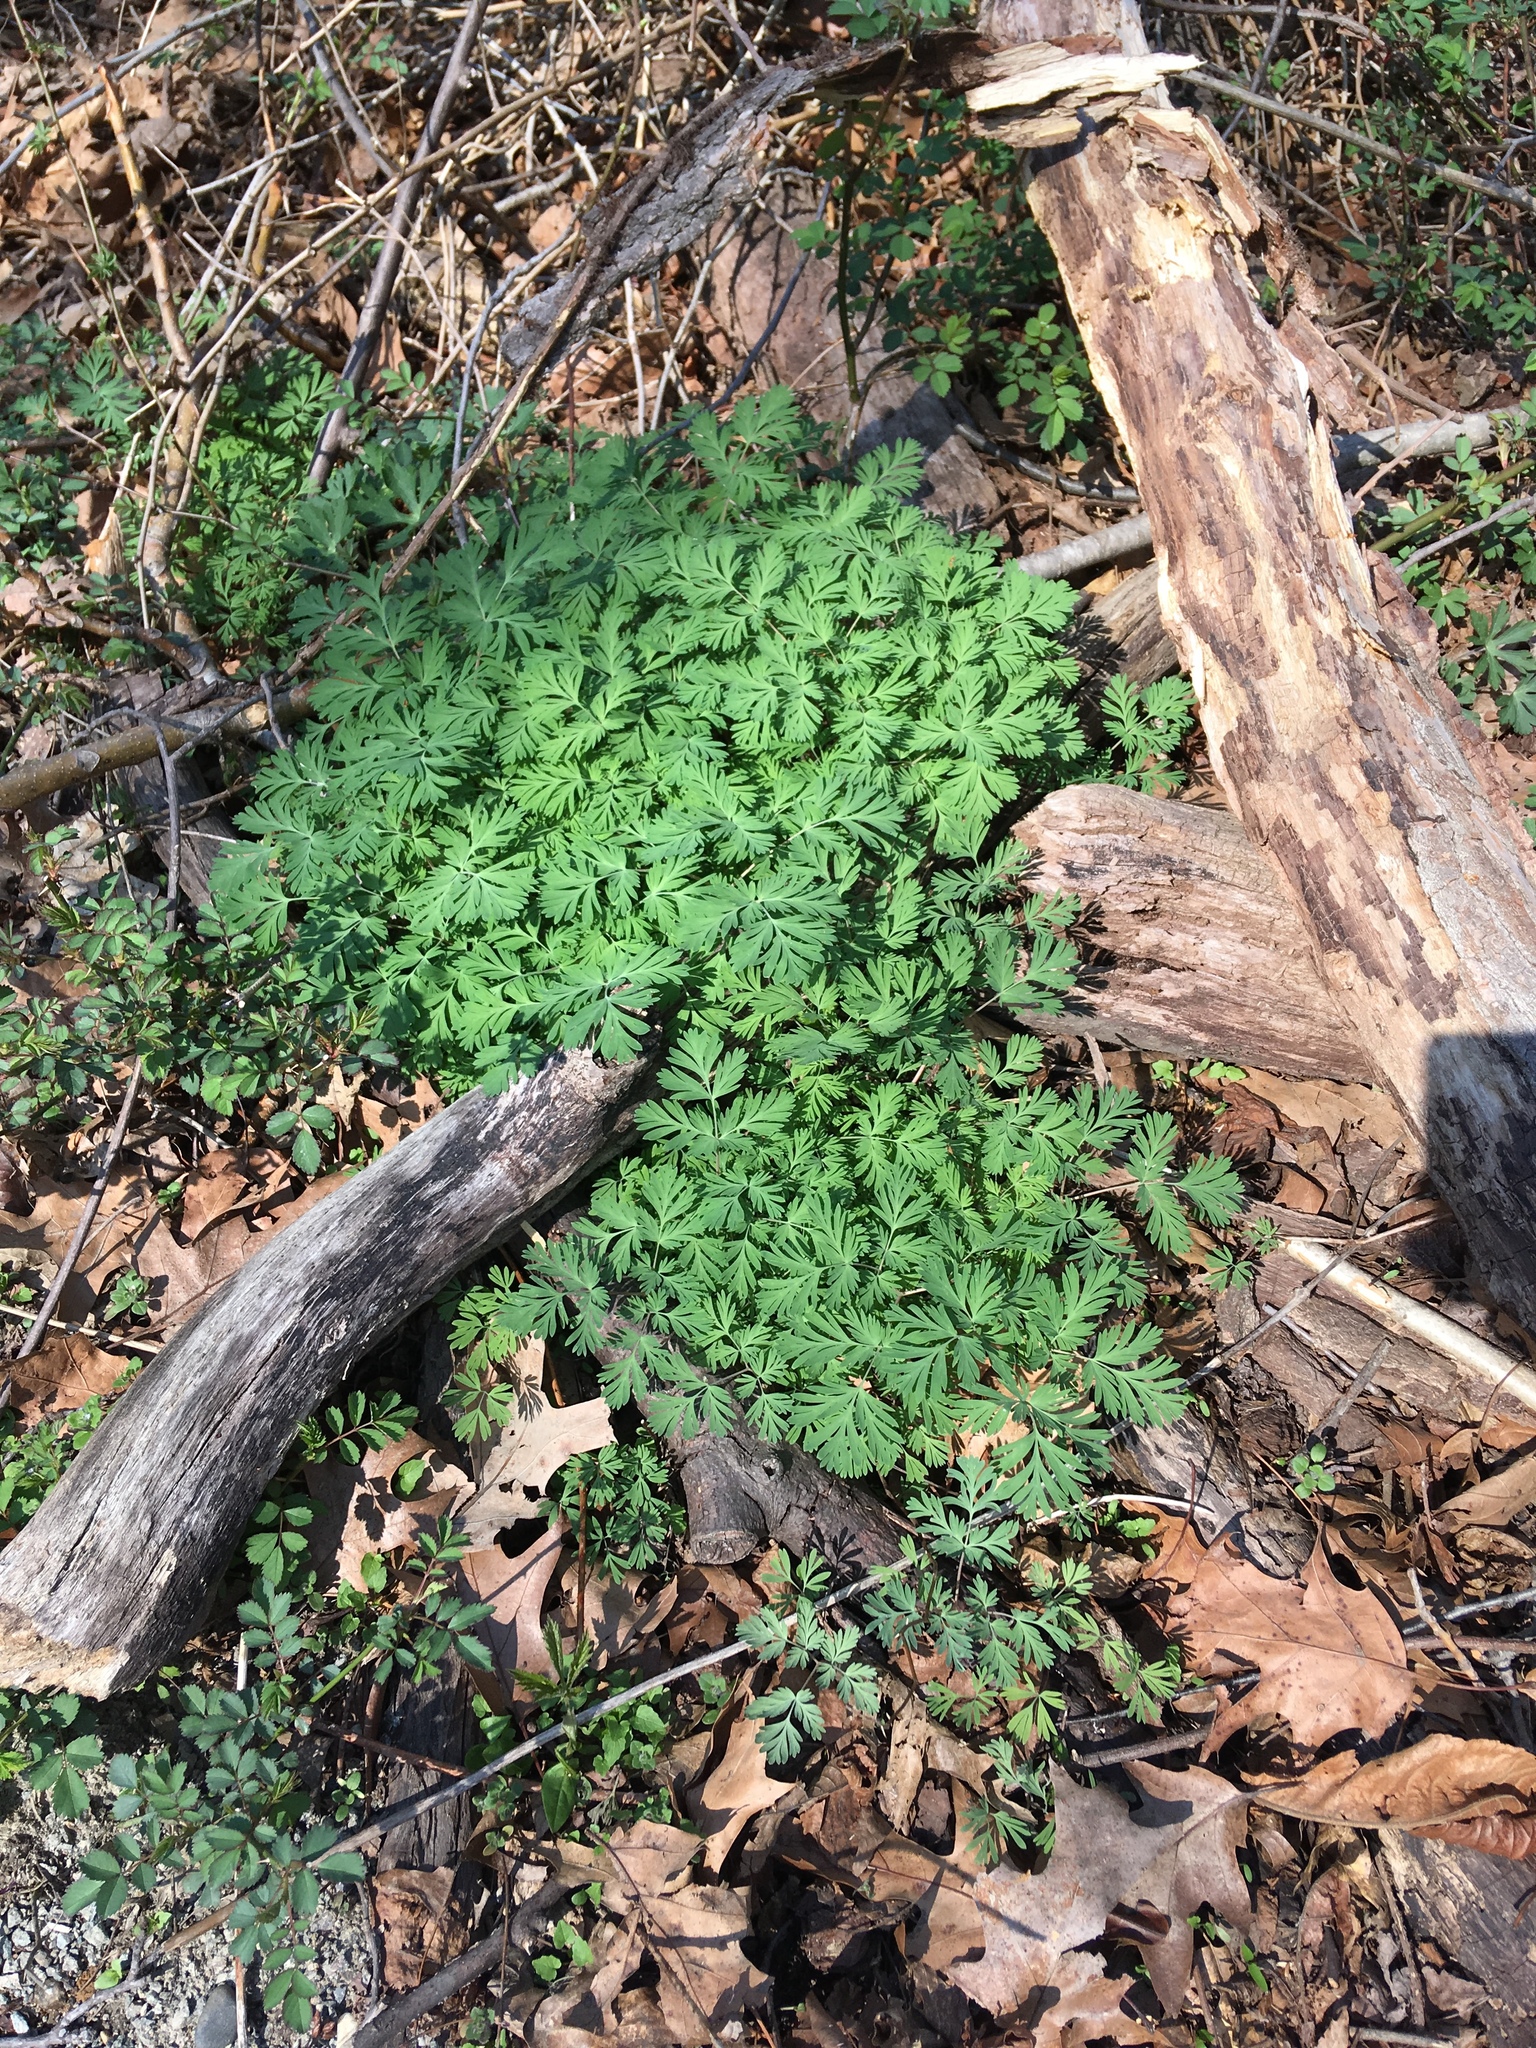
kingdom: Plantae
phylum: Tracheophyta
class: Magnoliopsida
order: Ranunculales
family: Papaveraceae
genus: Dicentra
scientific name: Dicentra cucullaria
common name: Dutchman's breeches
